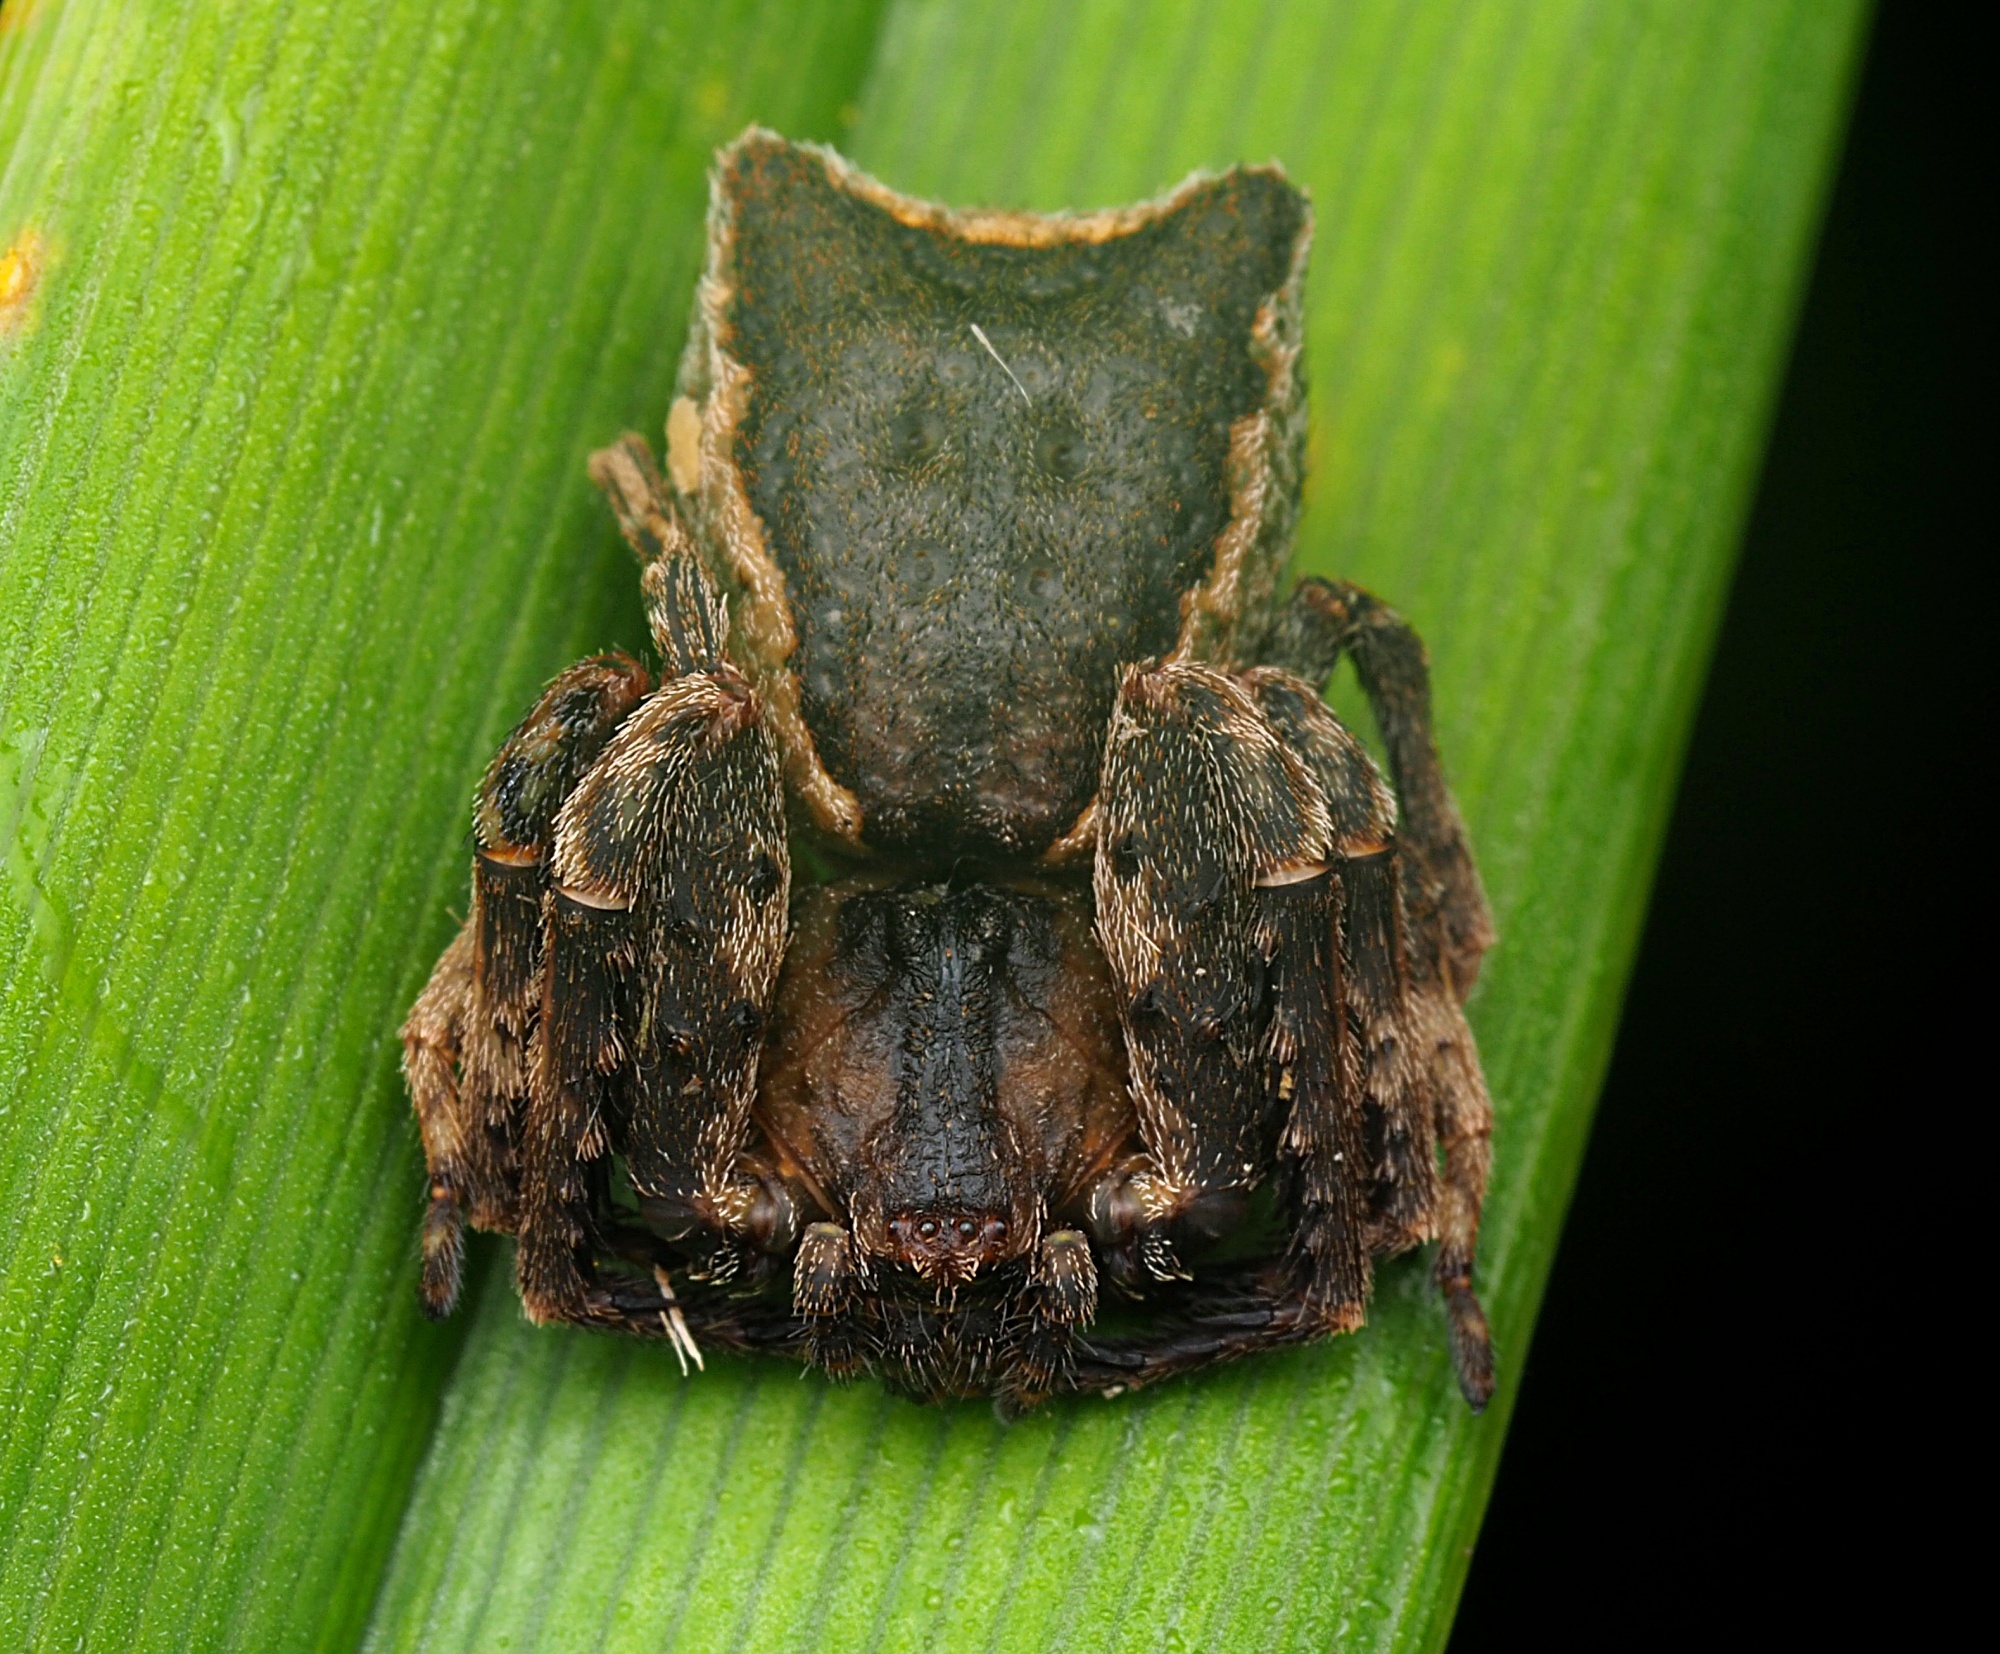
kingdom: Animalia
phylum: Arthropoda
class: Arachnida
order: Araneae
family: Thomisidae
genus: Sidymella
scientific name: Sidymella angularis
